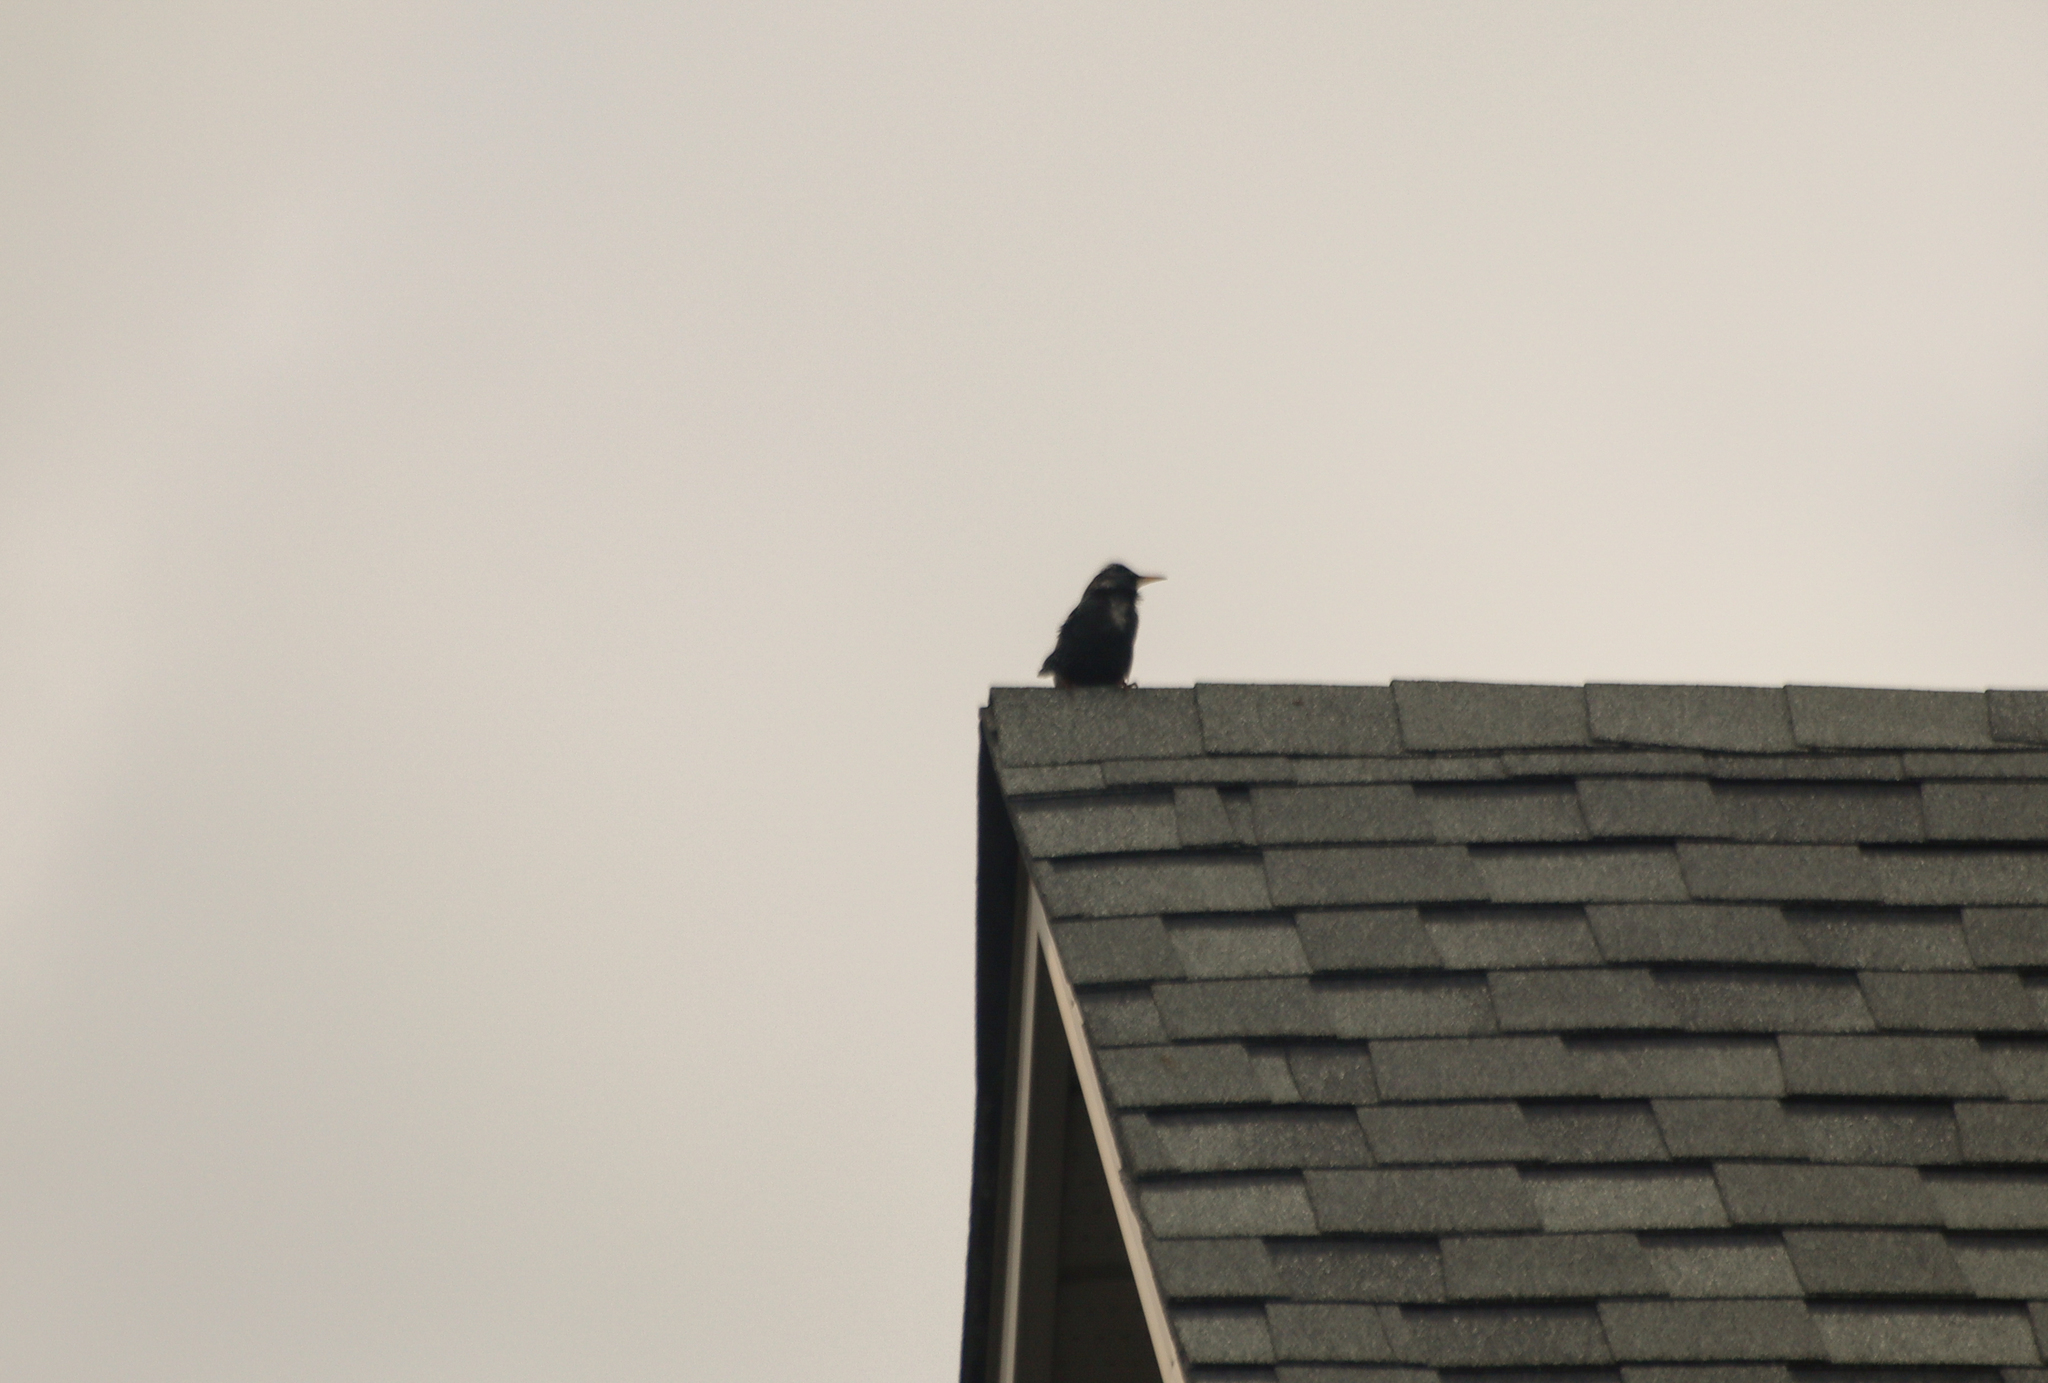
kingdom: Animalia
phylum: Chordata
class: Aves
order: Passeriformes
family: Sturnidae
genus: Sturnus
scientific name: Sturnus vulgaris
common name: Common starling
